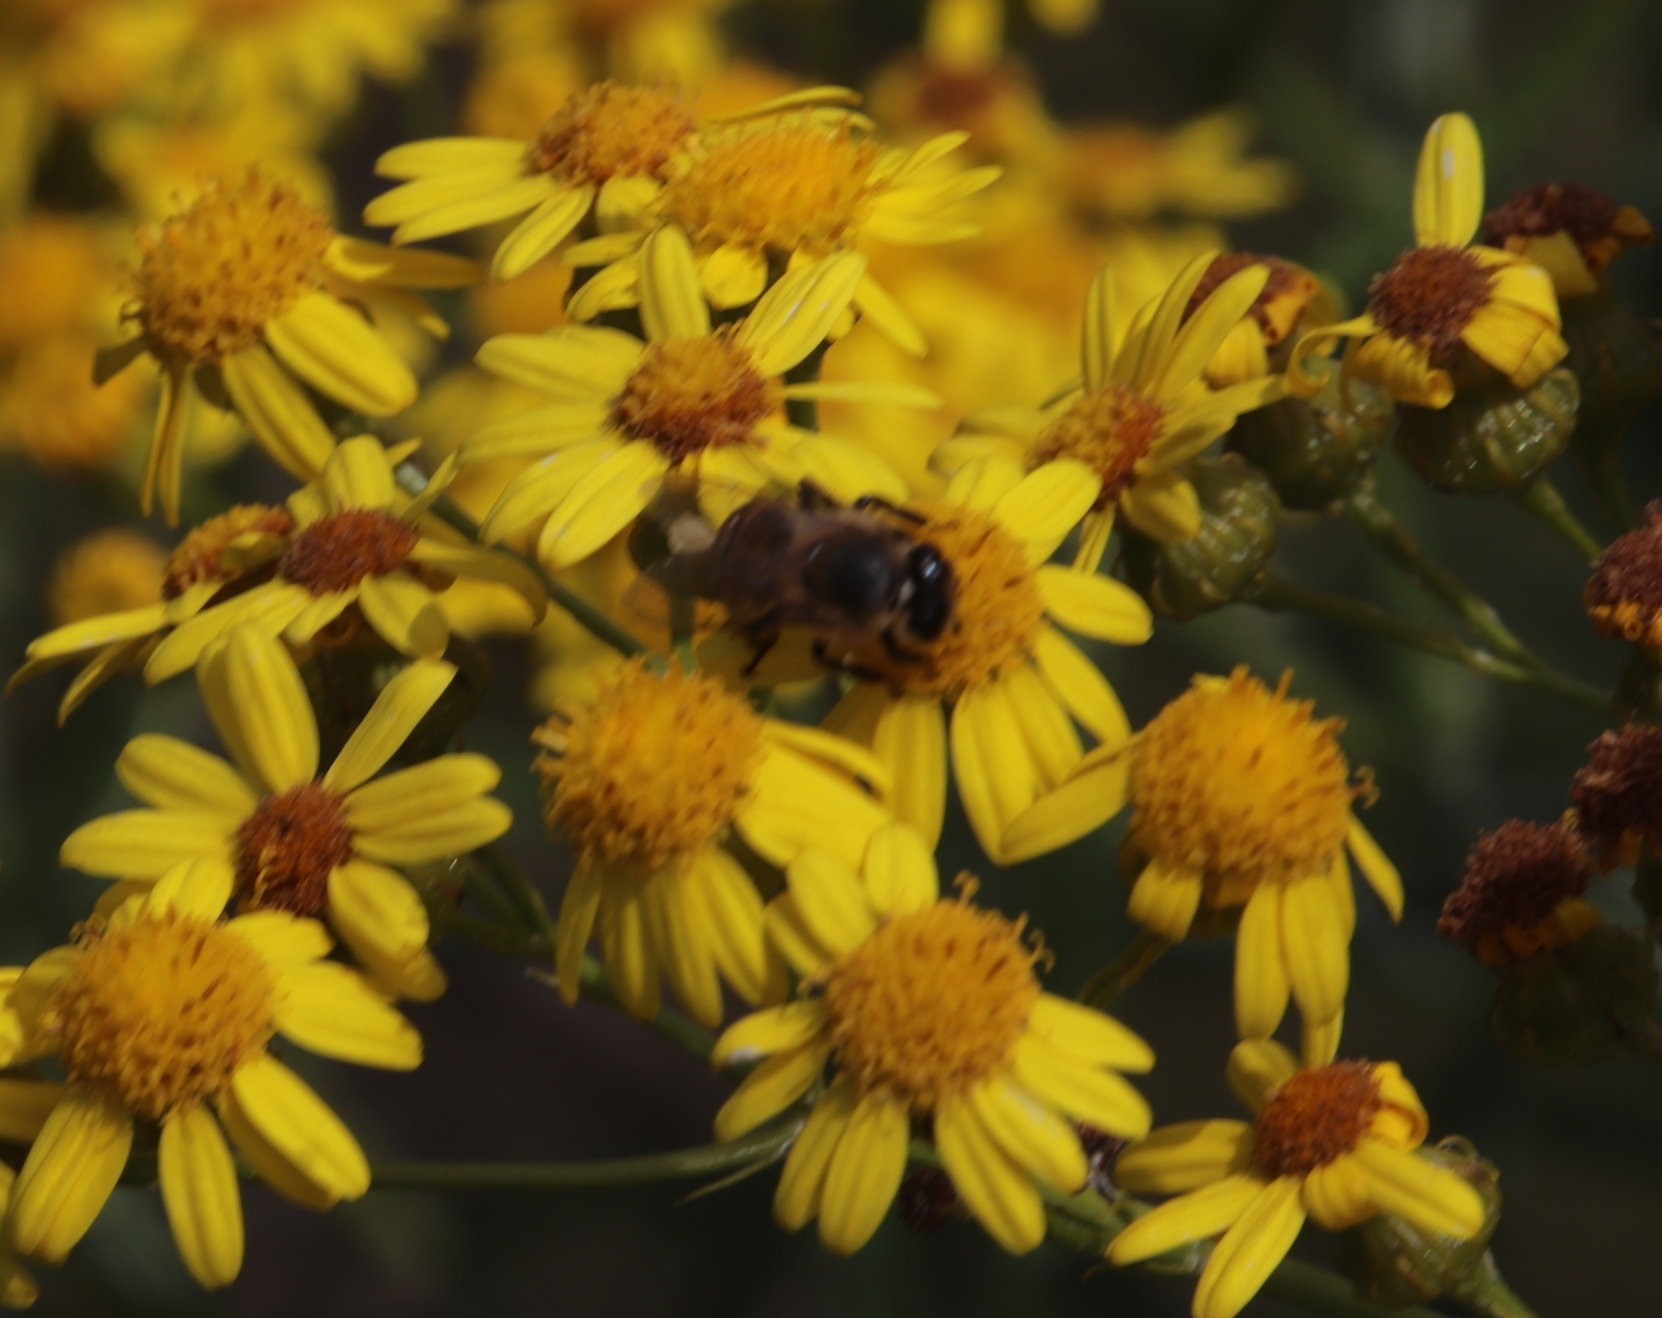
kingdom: Animalia
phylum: Arthropoda
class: Insecta
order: Hymenoptera
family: Apidae
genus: Apis
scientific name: Apis mellifera
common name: Honey bee
